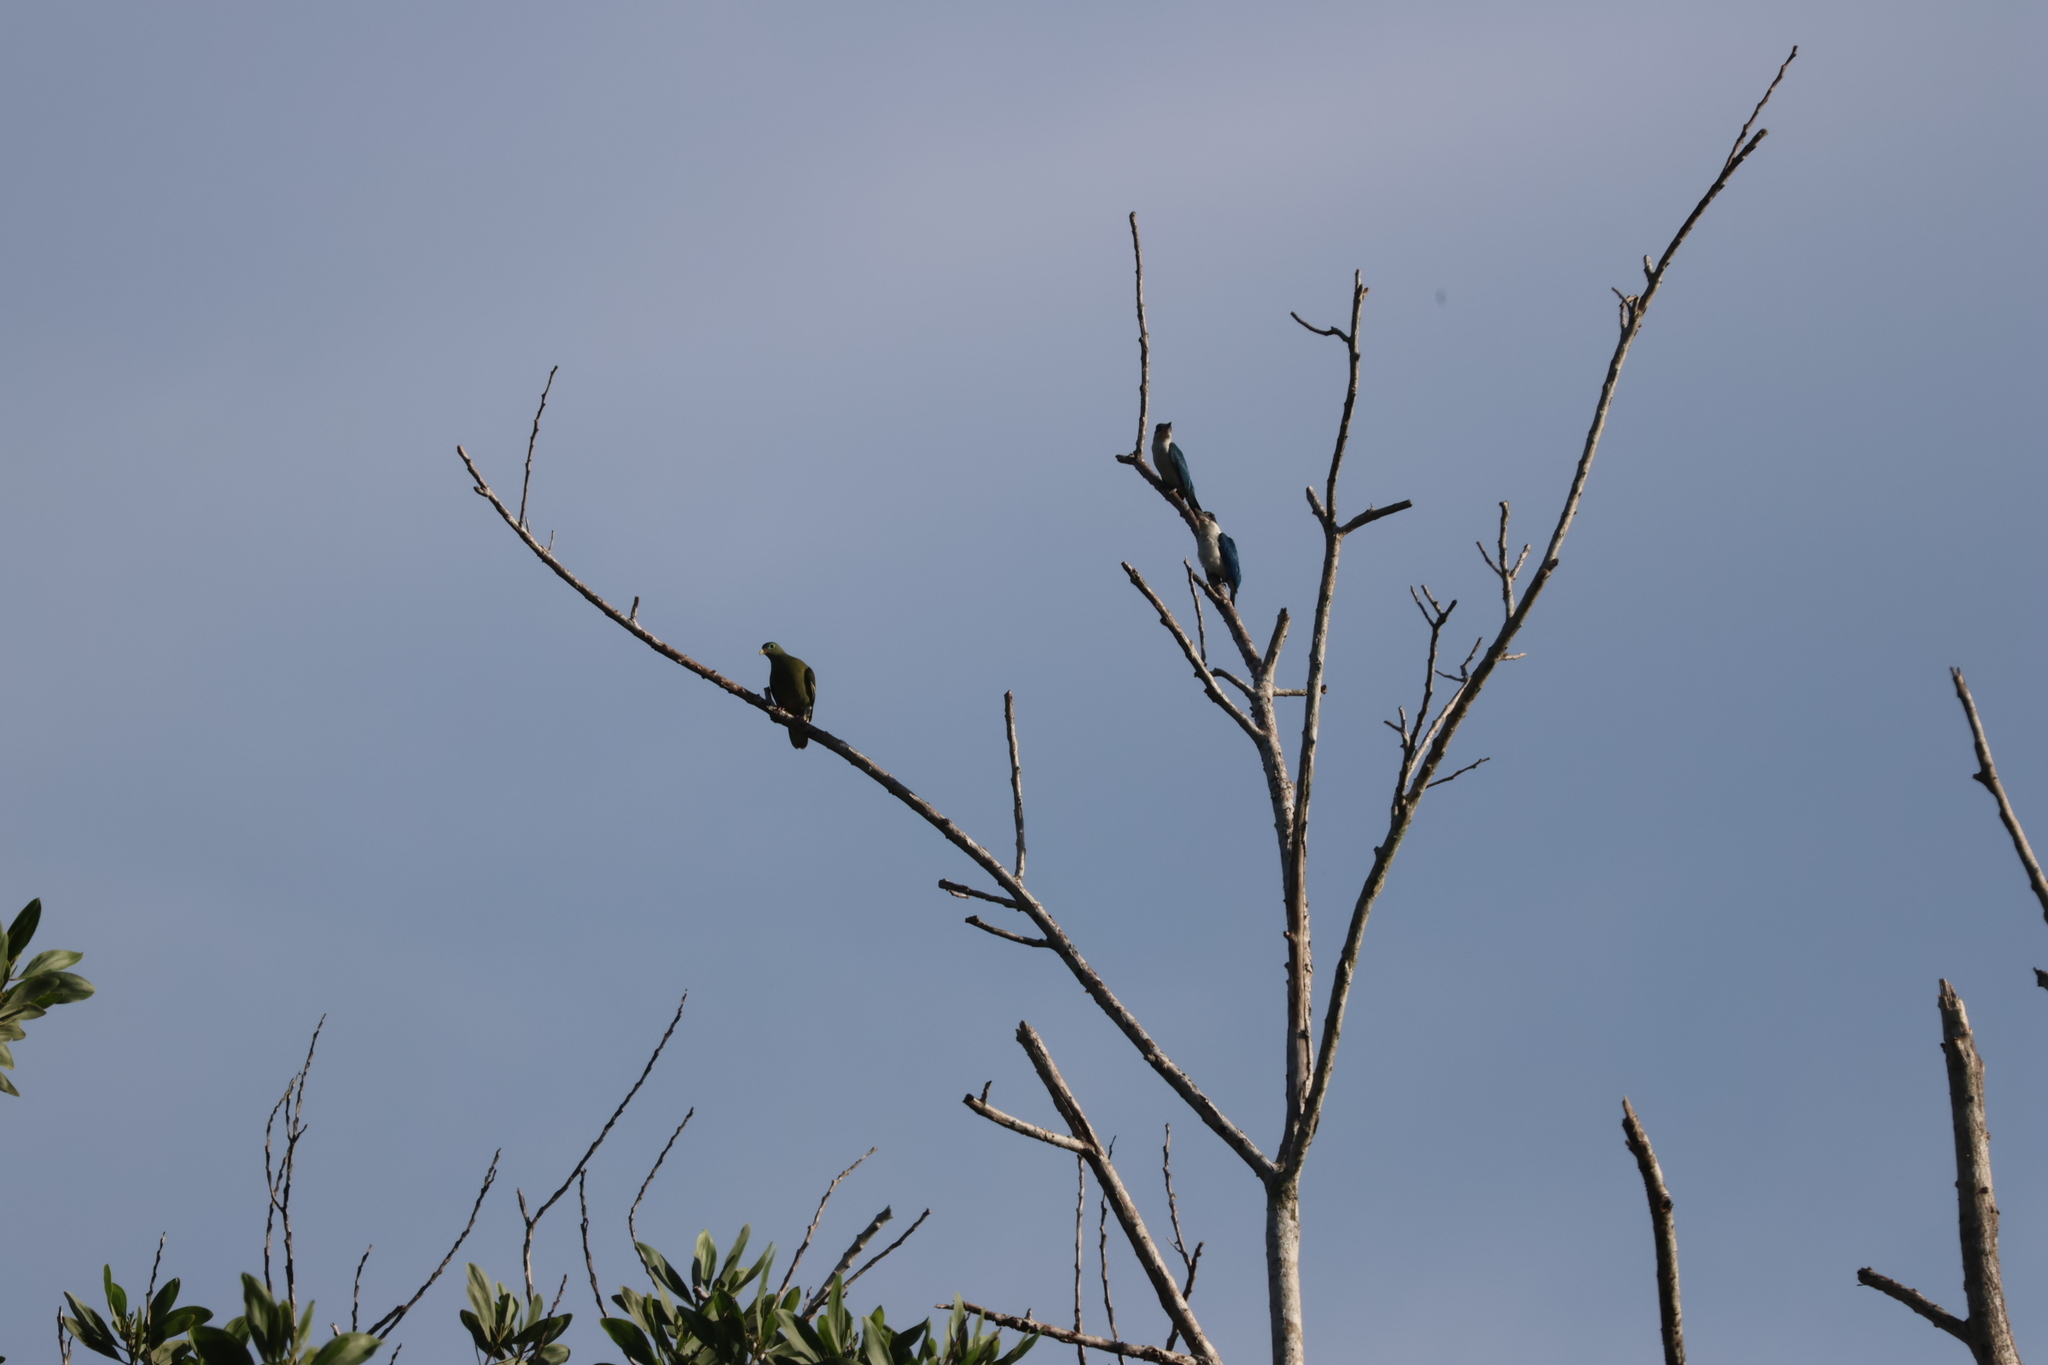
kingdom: Animalia
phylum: Chordata
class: Aves
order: Columbiformes
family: Columbidae
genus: Treron
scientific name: Treron curvirostra
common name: Thick-billed green pigeon
